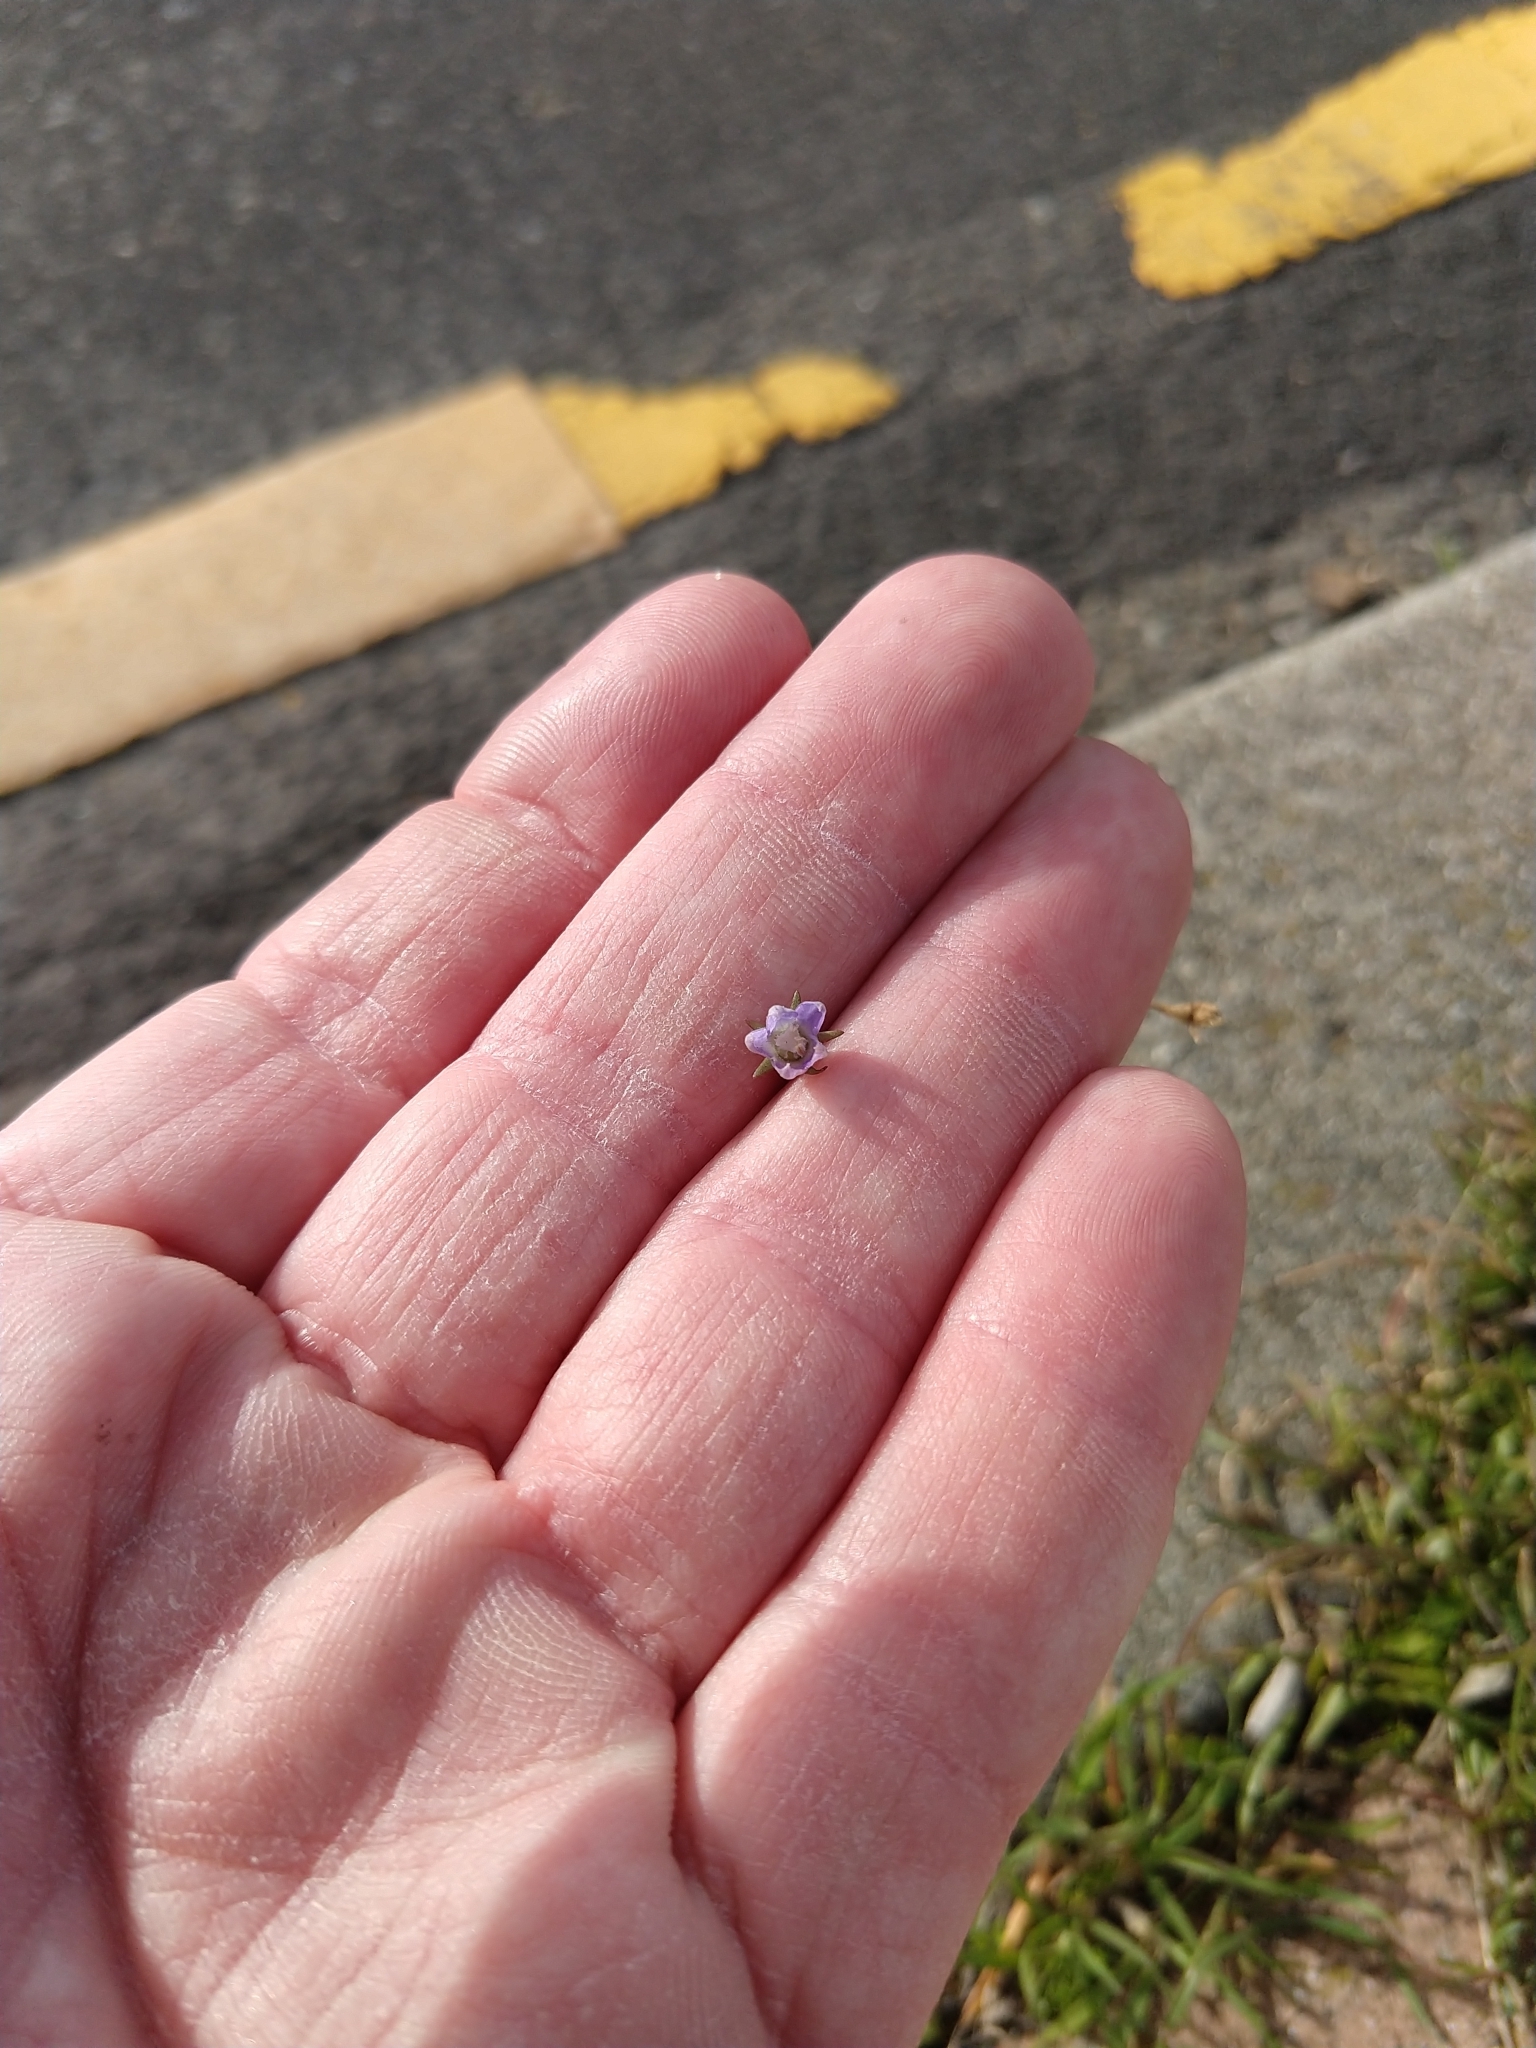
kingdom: Plantae
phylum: Tracheophyta
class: Magnoliopsida
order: Asterales
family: Campanulaceae
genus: Wahlenbergia
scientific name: Wahlenbergia marginata
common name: Southern rockbell
